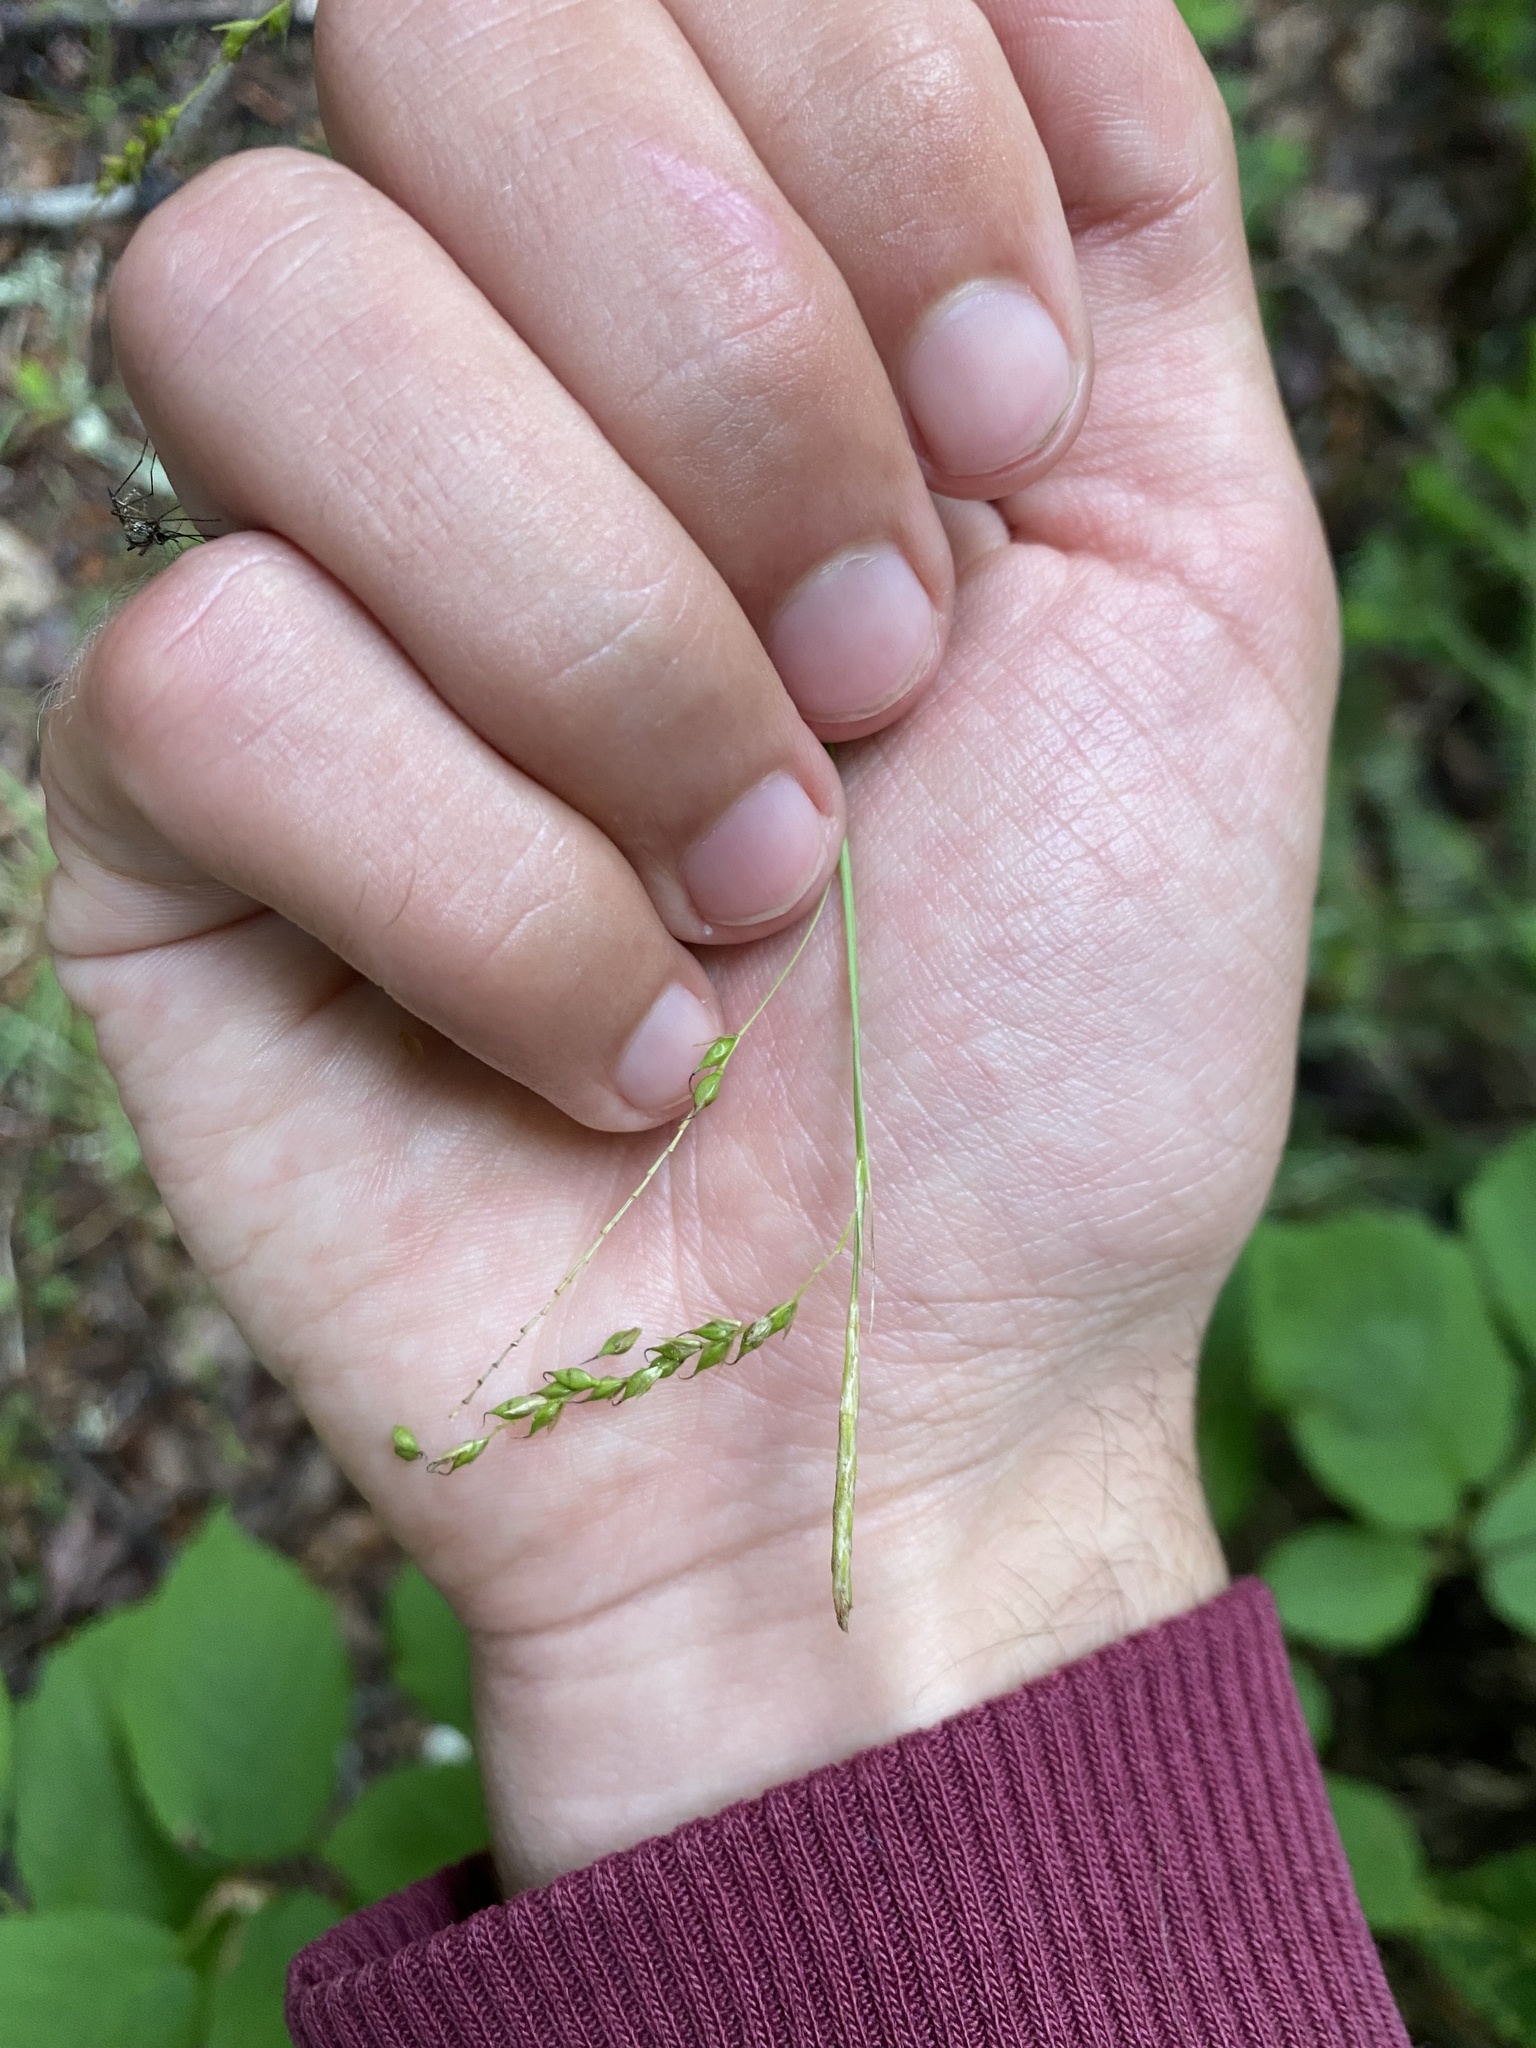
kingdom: Plantae
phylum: Tracheophyta
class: Liliopsida
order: Poales
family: Cyperaceae
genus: Carex
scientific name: Carex arctata
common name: Black sedge
